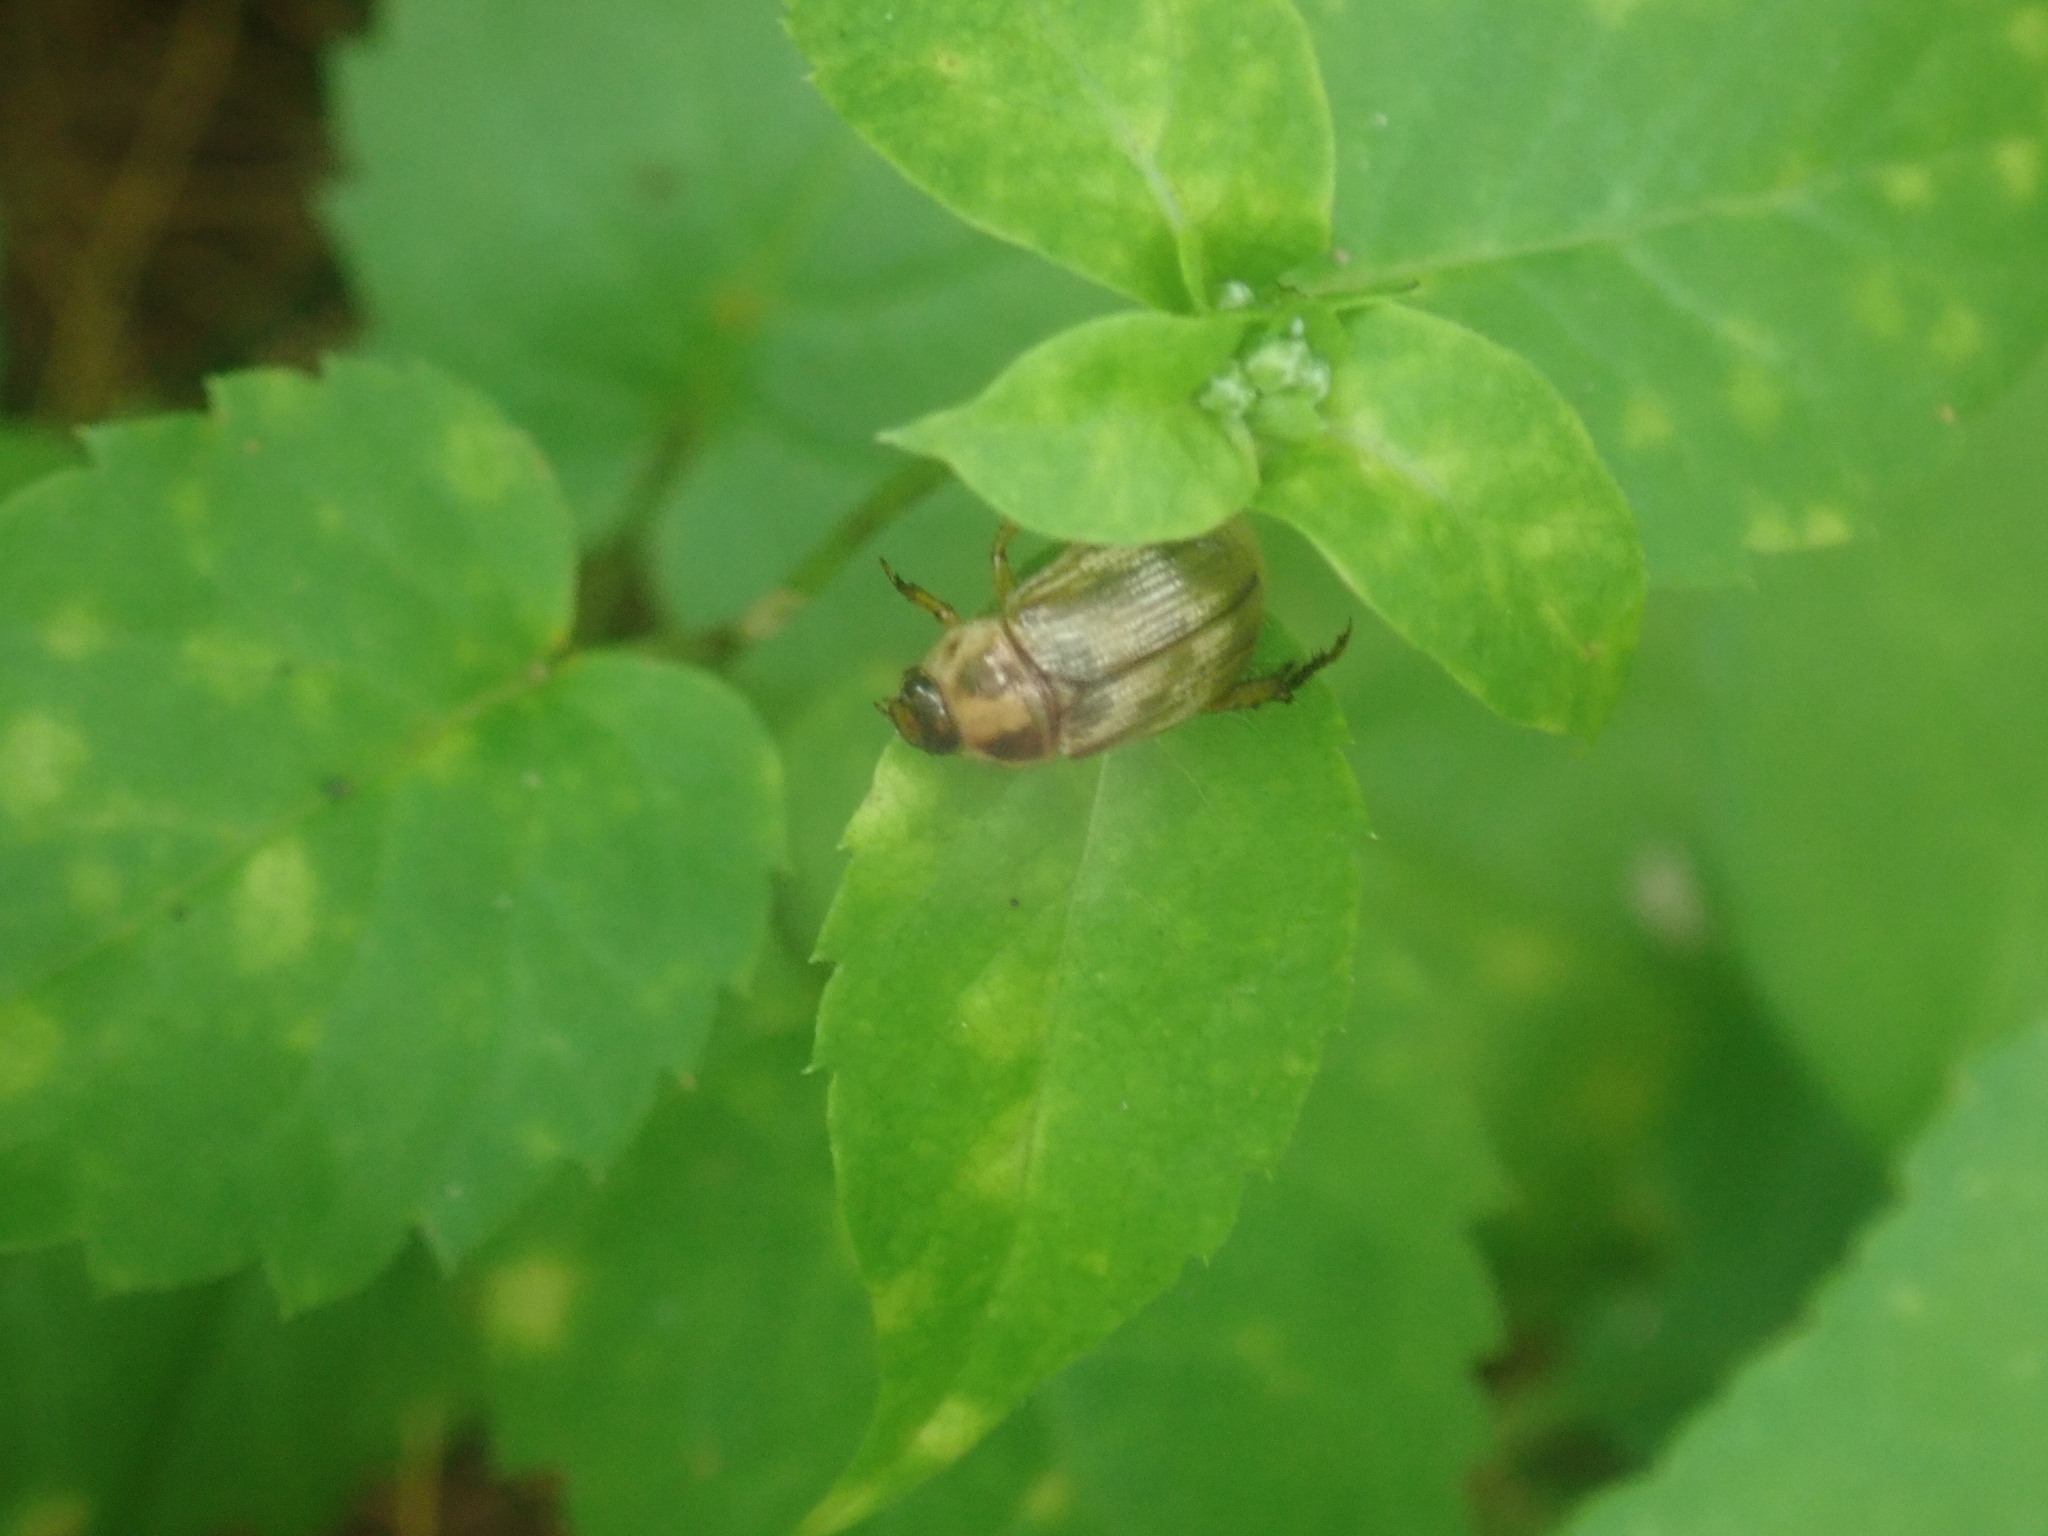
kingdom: Animalia
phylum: Arthropoda
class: Insecta
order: Coleoptera
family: Scarabaeidae
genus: Exomala
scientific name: Exomala orientalis
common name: Oriental beetle
